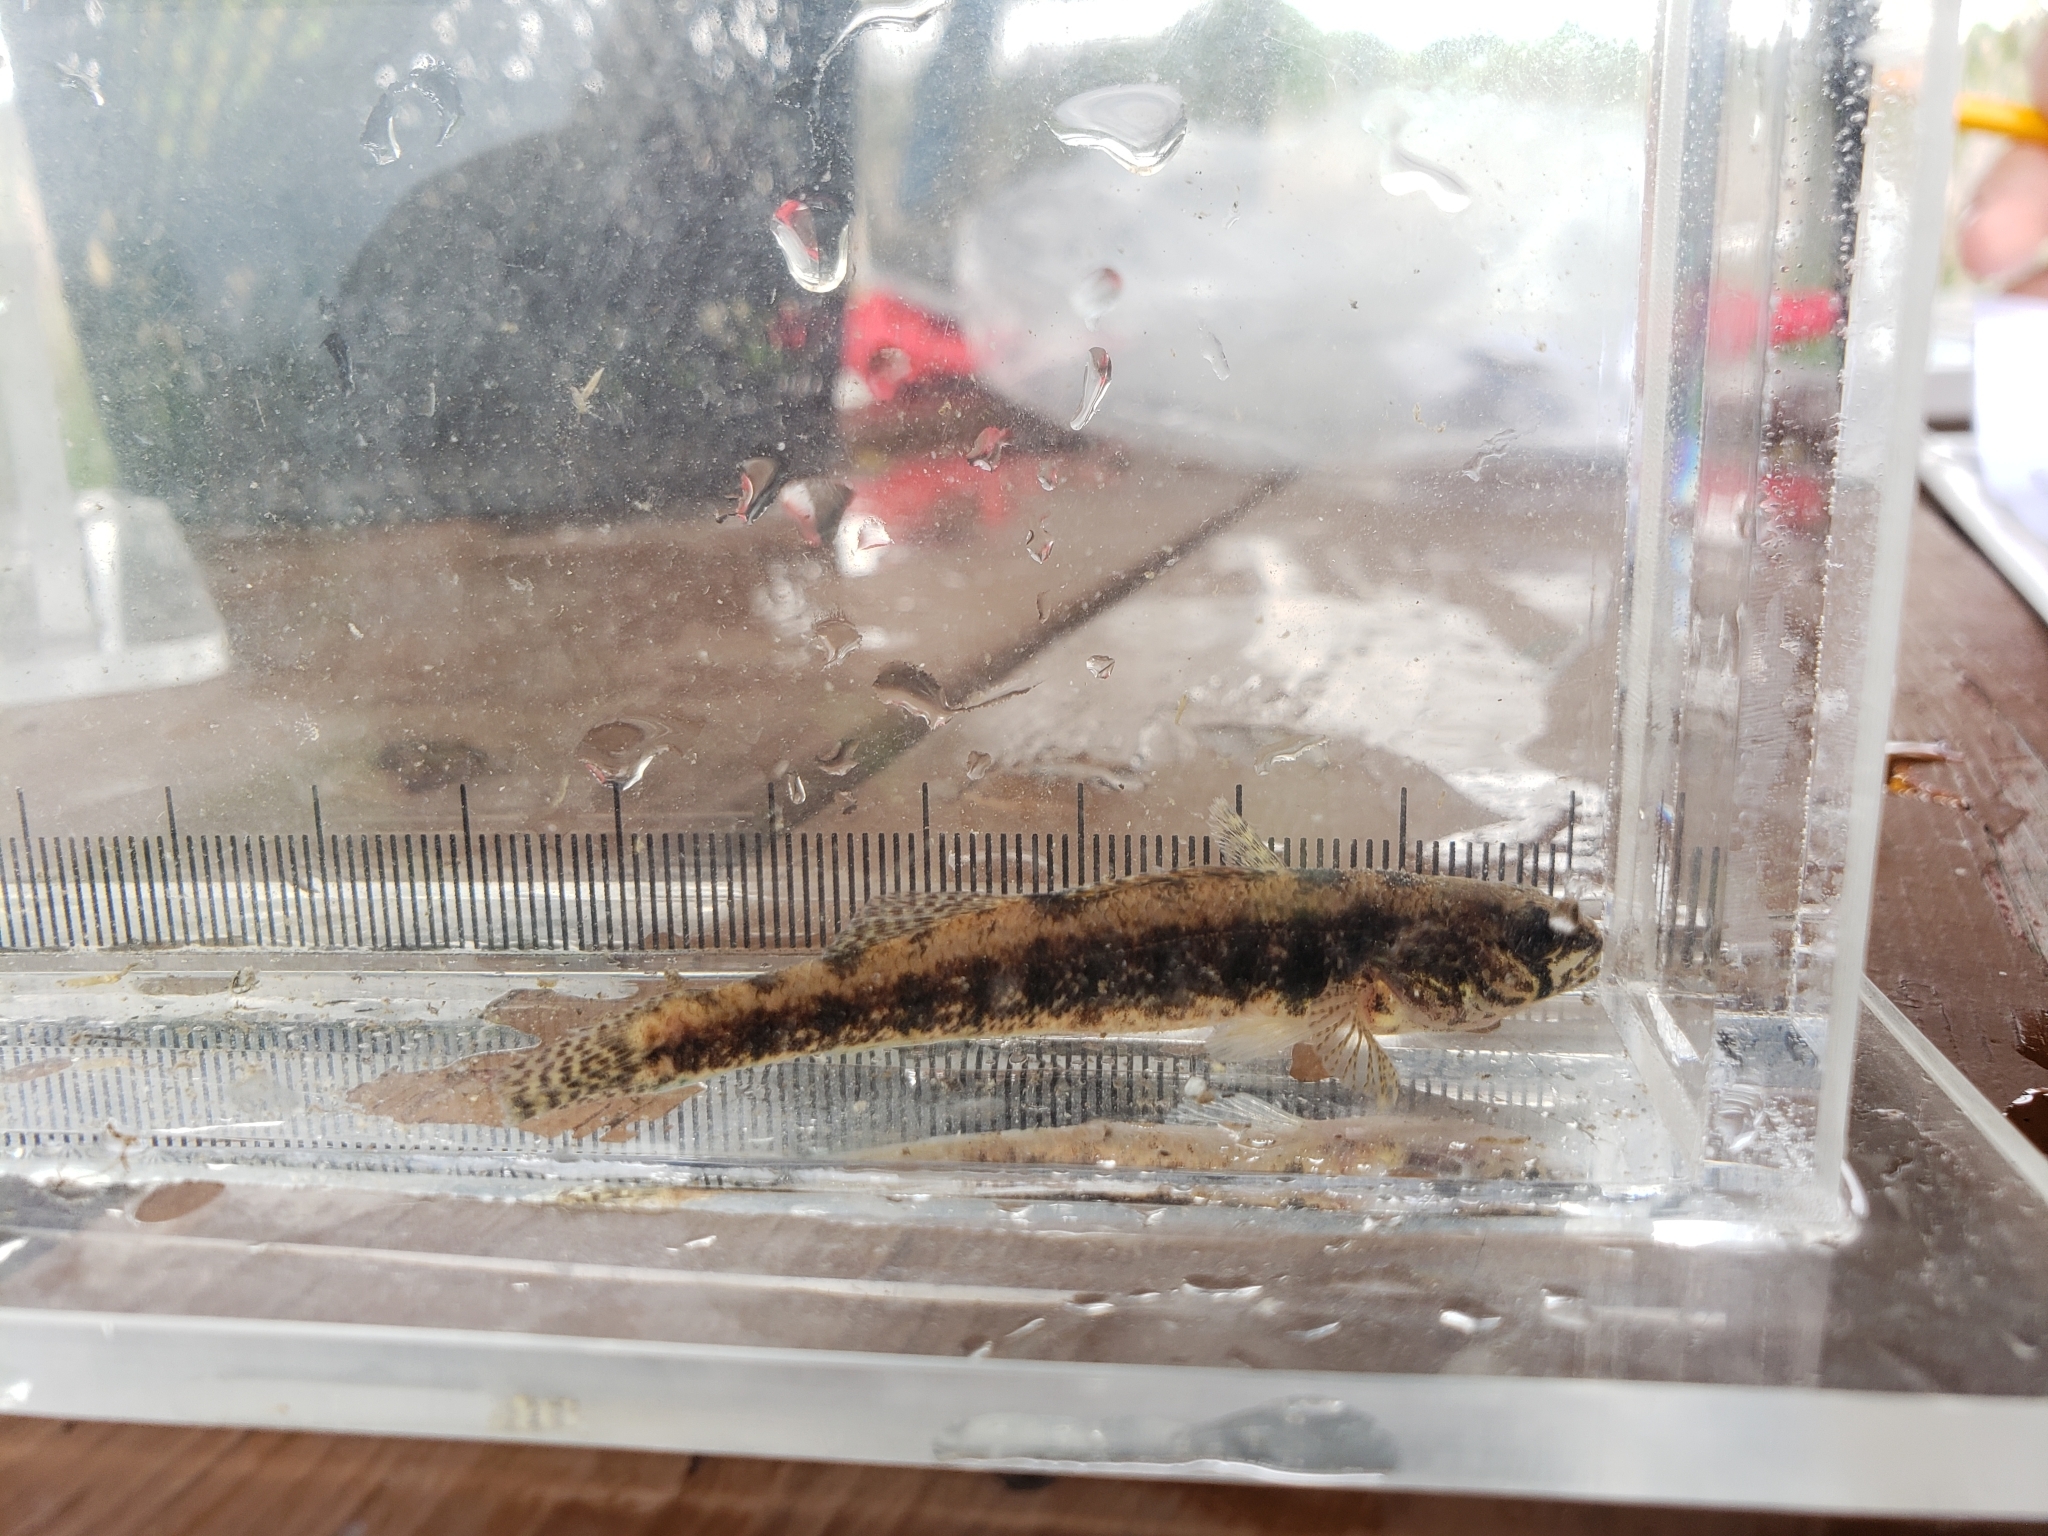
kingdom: Animalia
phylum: Chordata
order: Perciformes
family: Percidae
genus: Etheostoma
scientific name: Etheostoma exile
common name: Iowa darter
